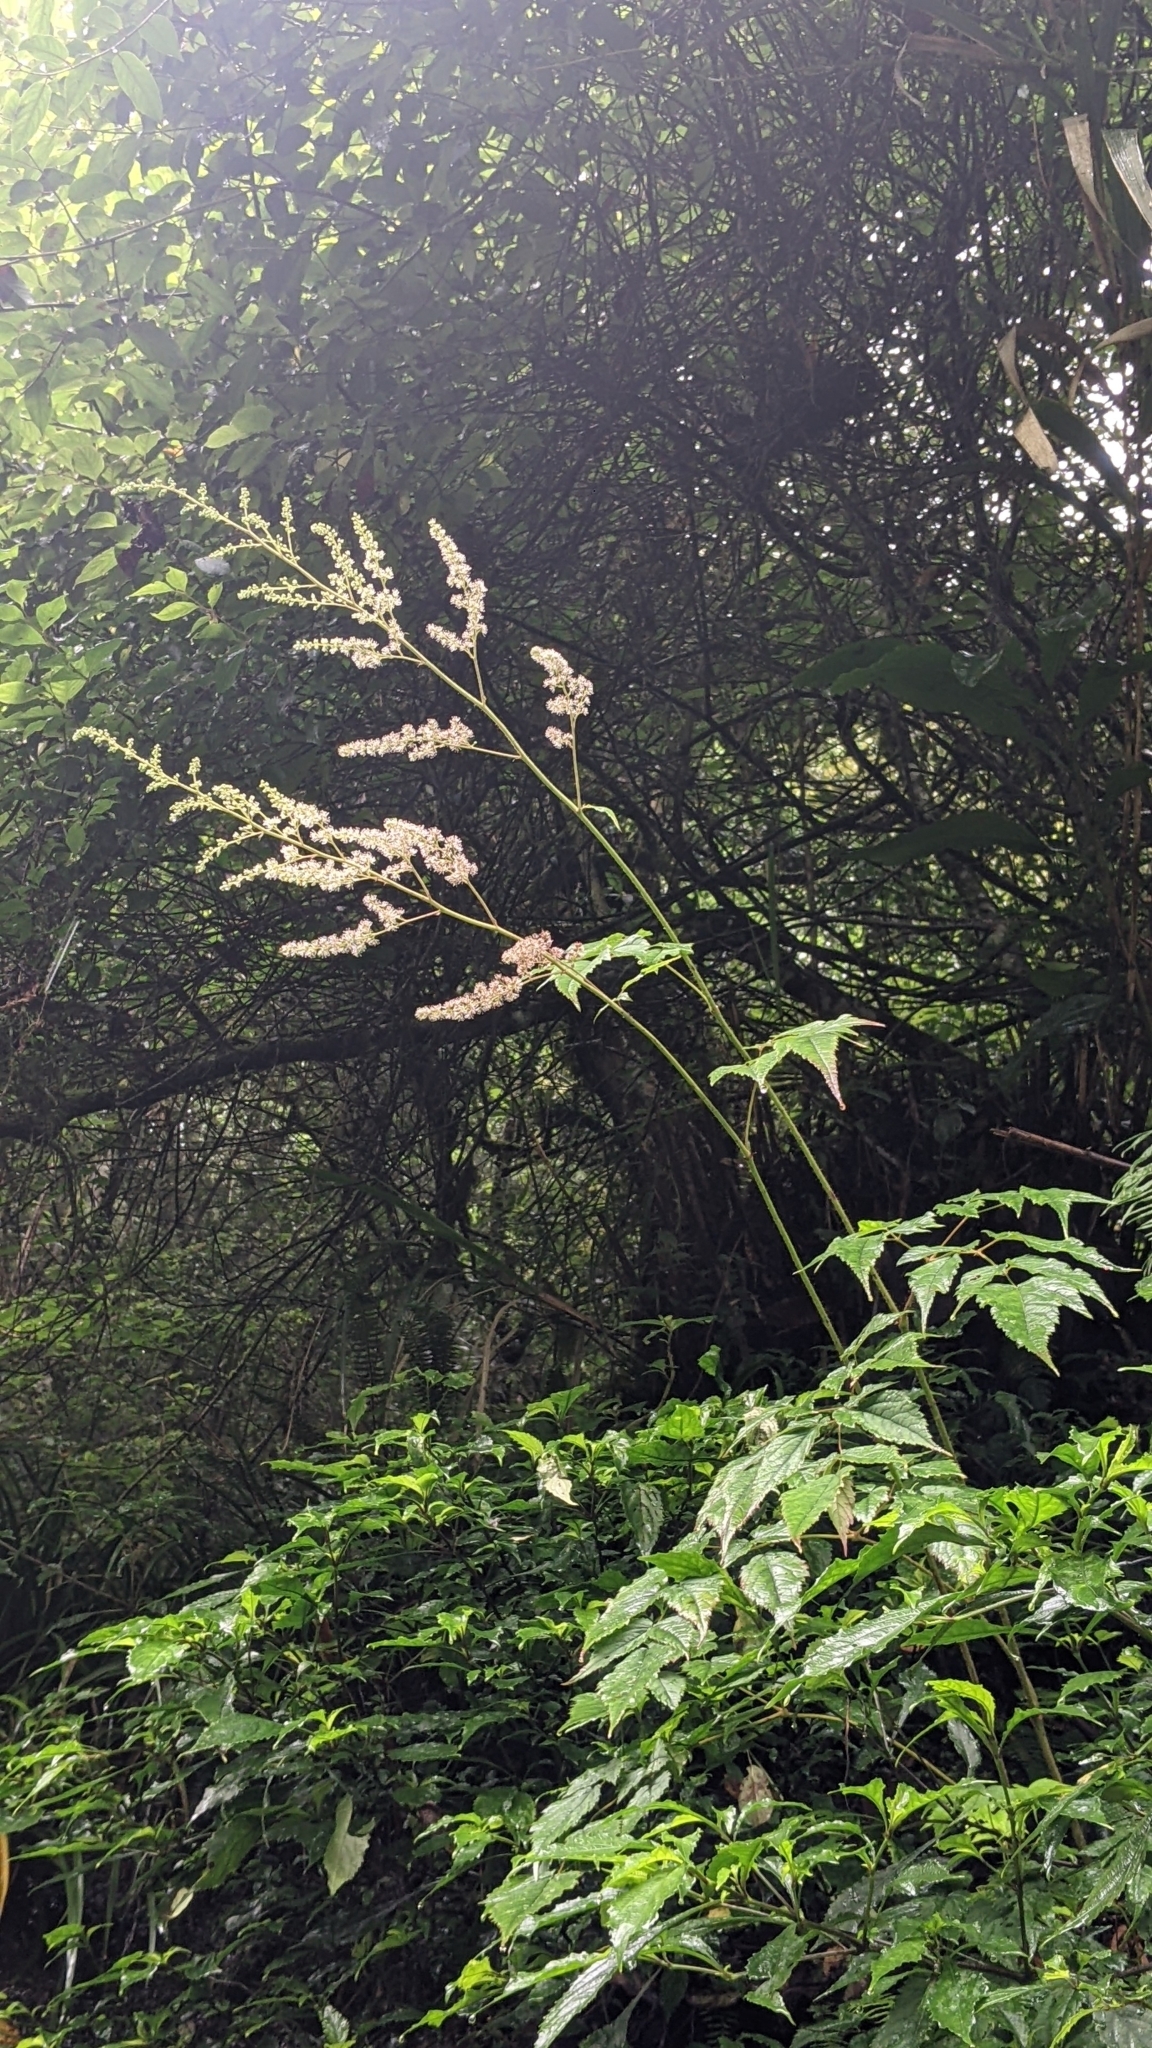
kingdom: Plantae
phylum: Tracheophyta
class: Magnoliopsida
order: Saxifragales
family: Saxifragaceae
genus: Astilbe
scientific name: Astilbe longicarpa
